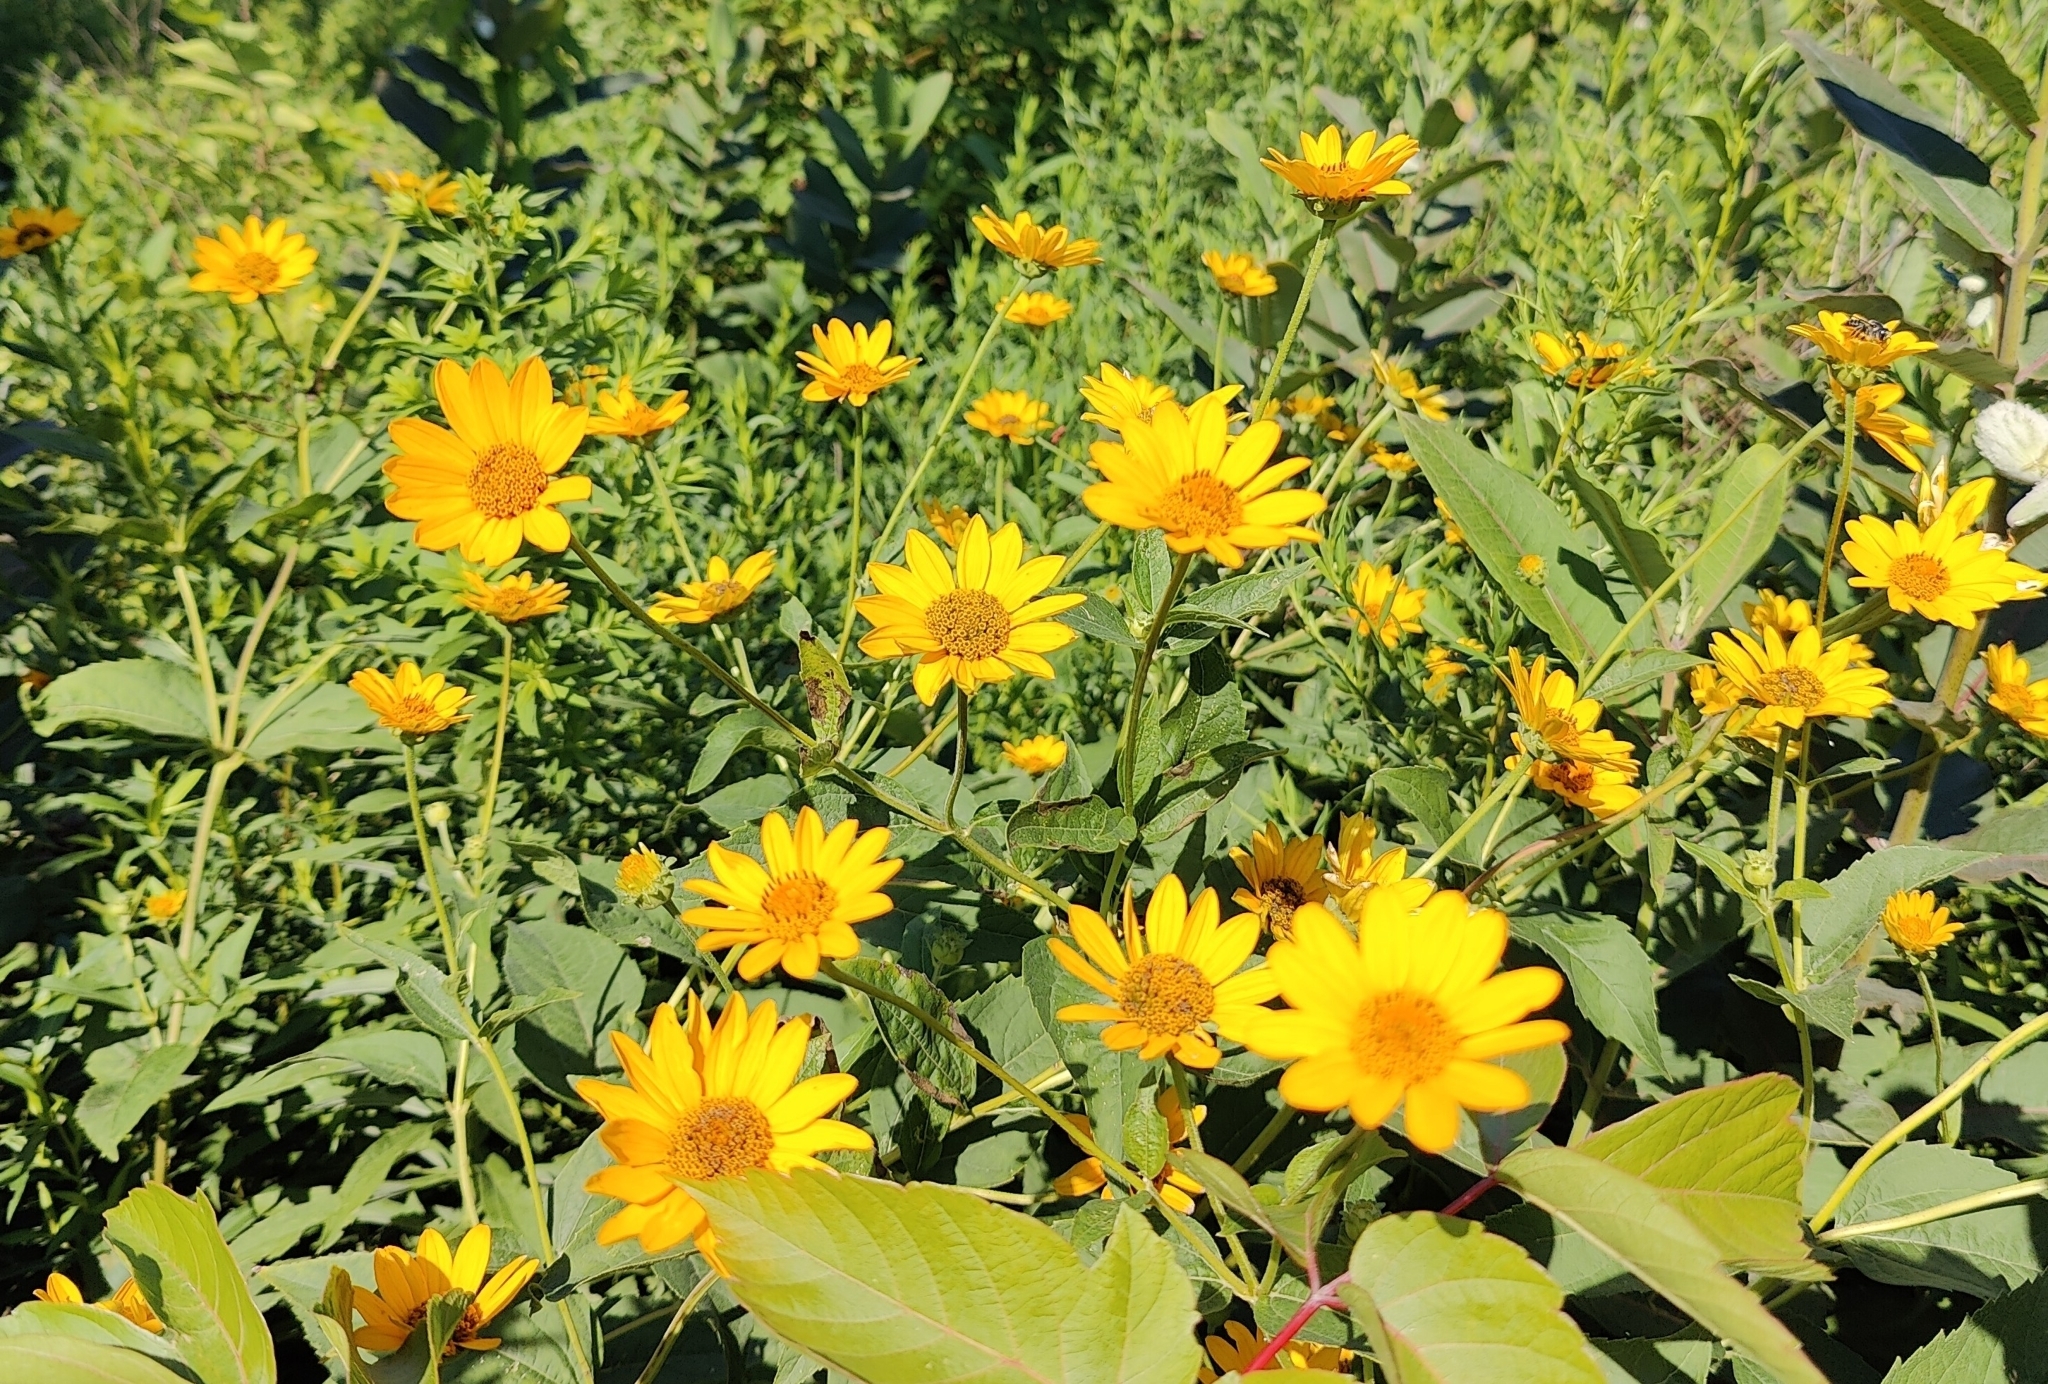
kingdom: Plantae
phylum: Tracheophyta
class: Magnoliopsida
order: Asterales
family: Asteraceae
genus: Heliopsis
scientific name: Heliopsis helianthoides
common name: False sunflower
